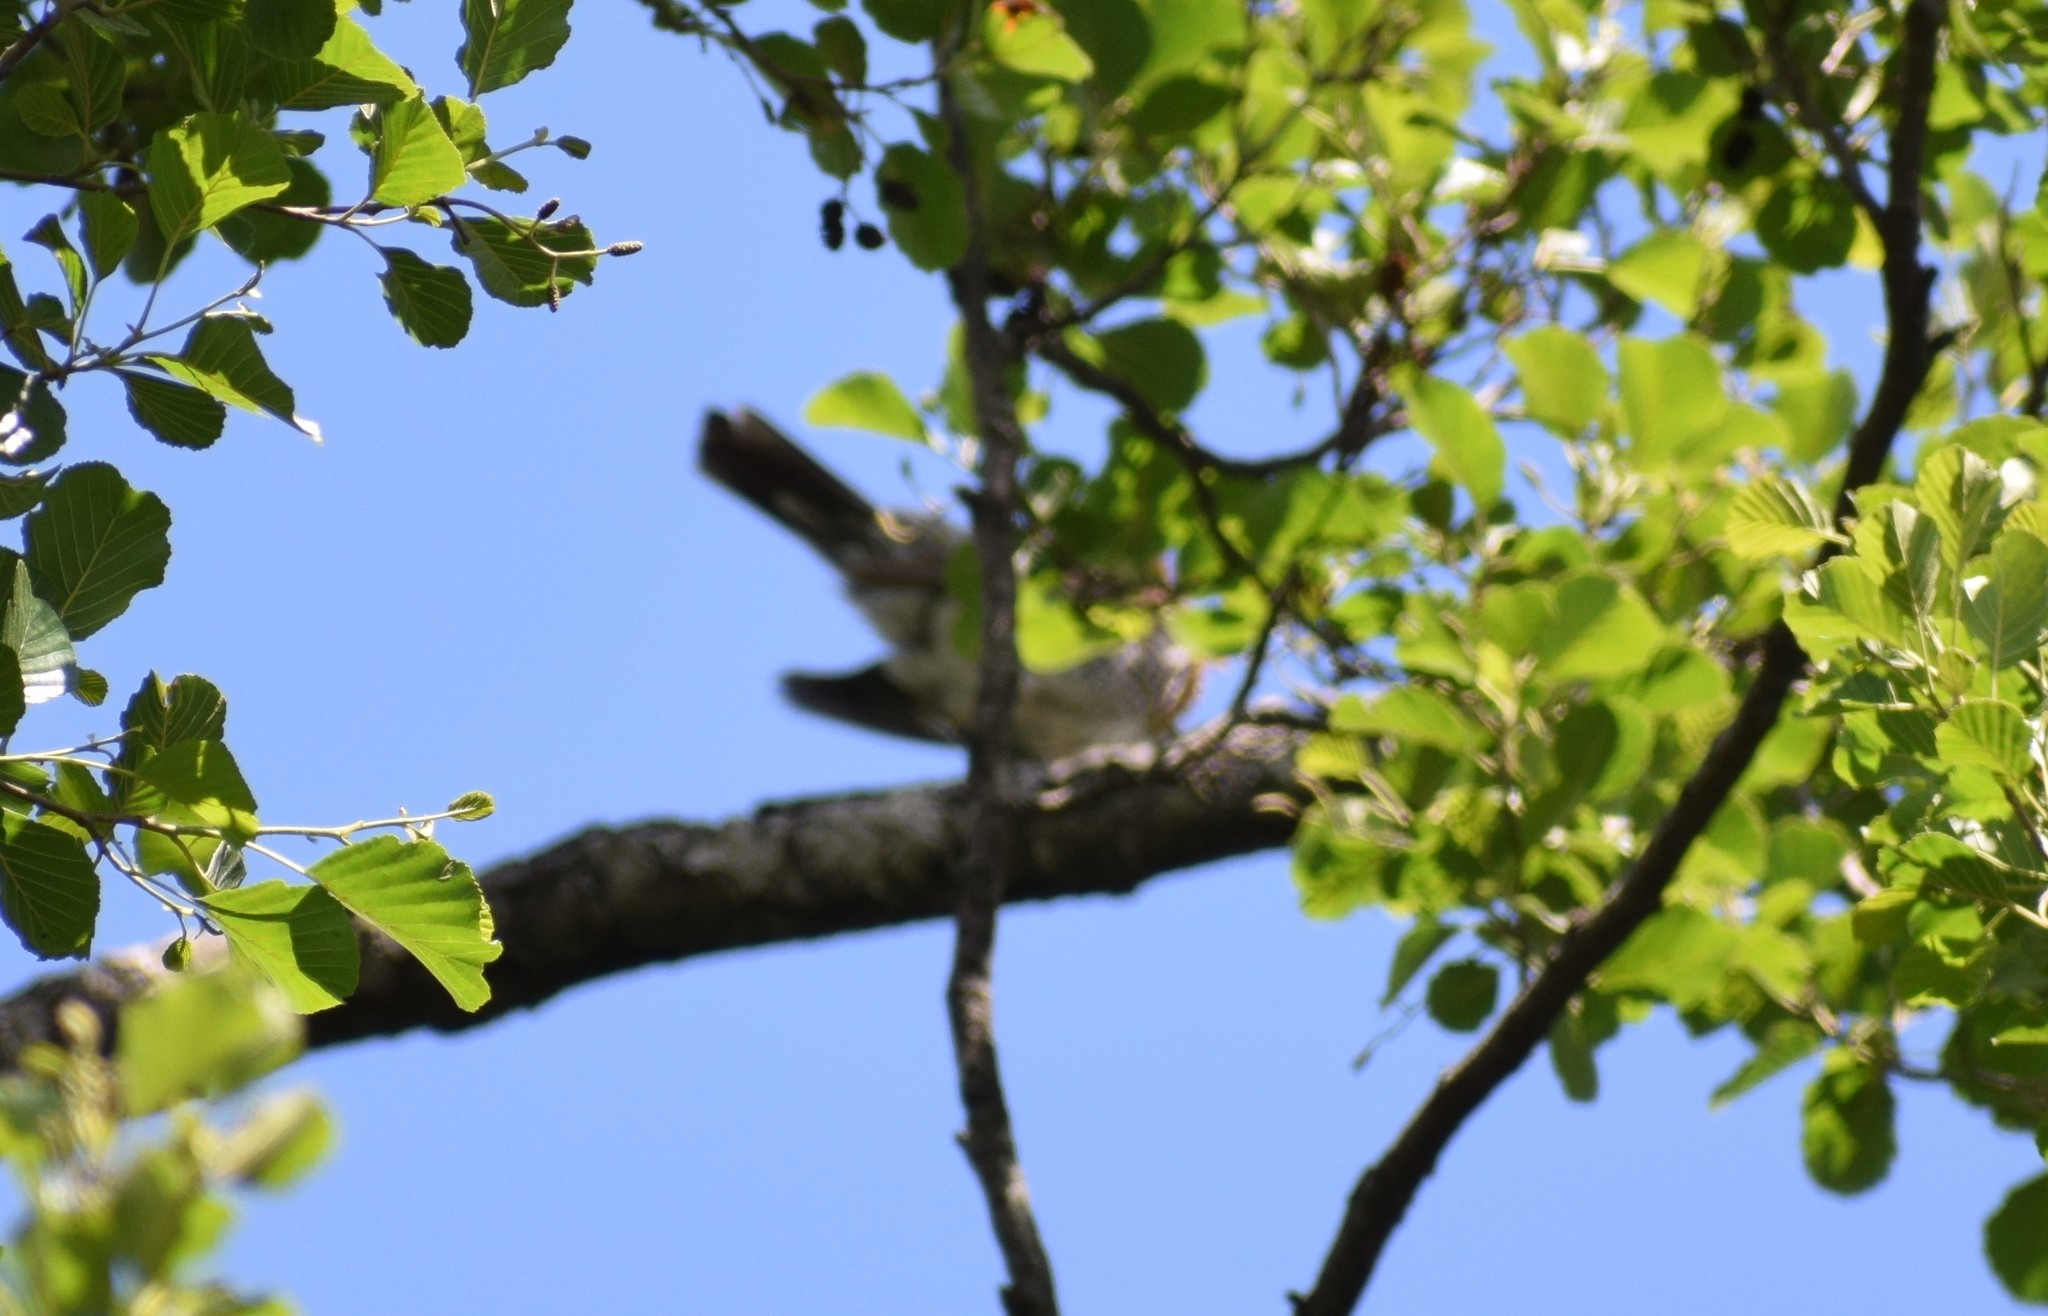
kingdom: Animalia
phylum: Chordata
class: Aves
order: Passeriformes
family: Turdidae
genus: Turdus
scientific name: Turdus pilaris
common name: Fieldfare
